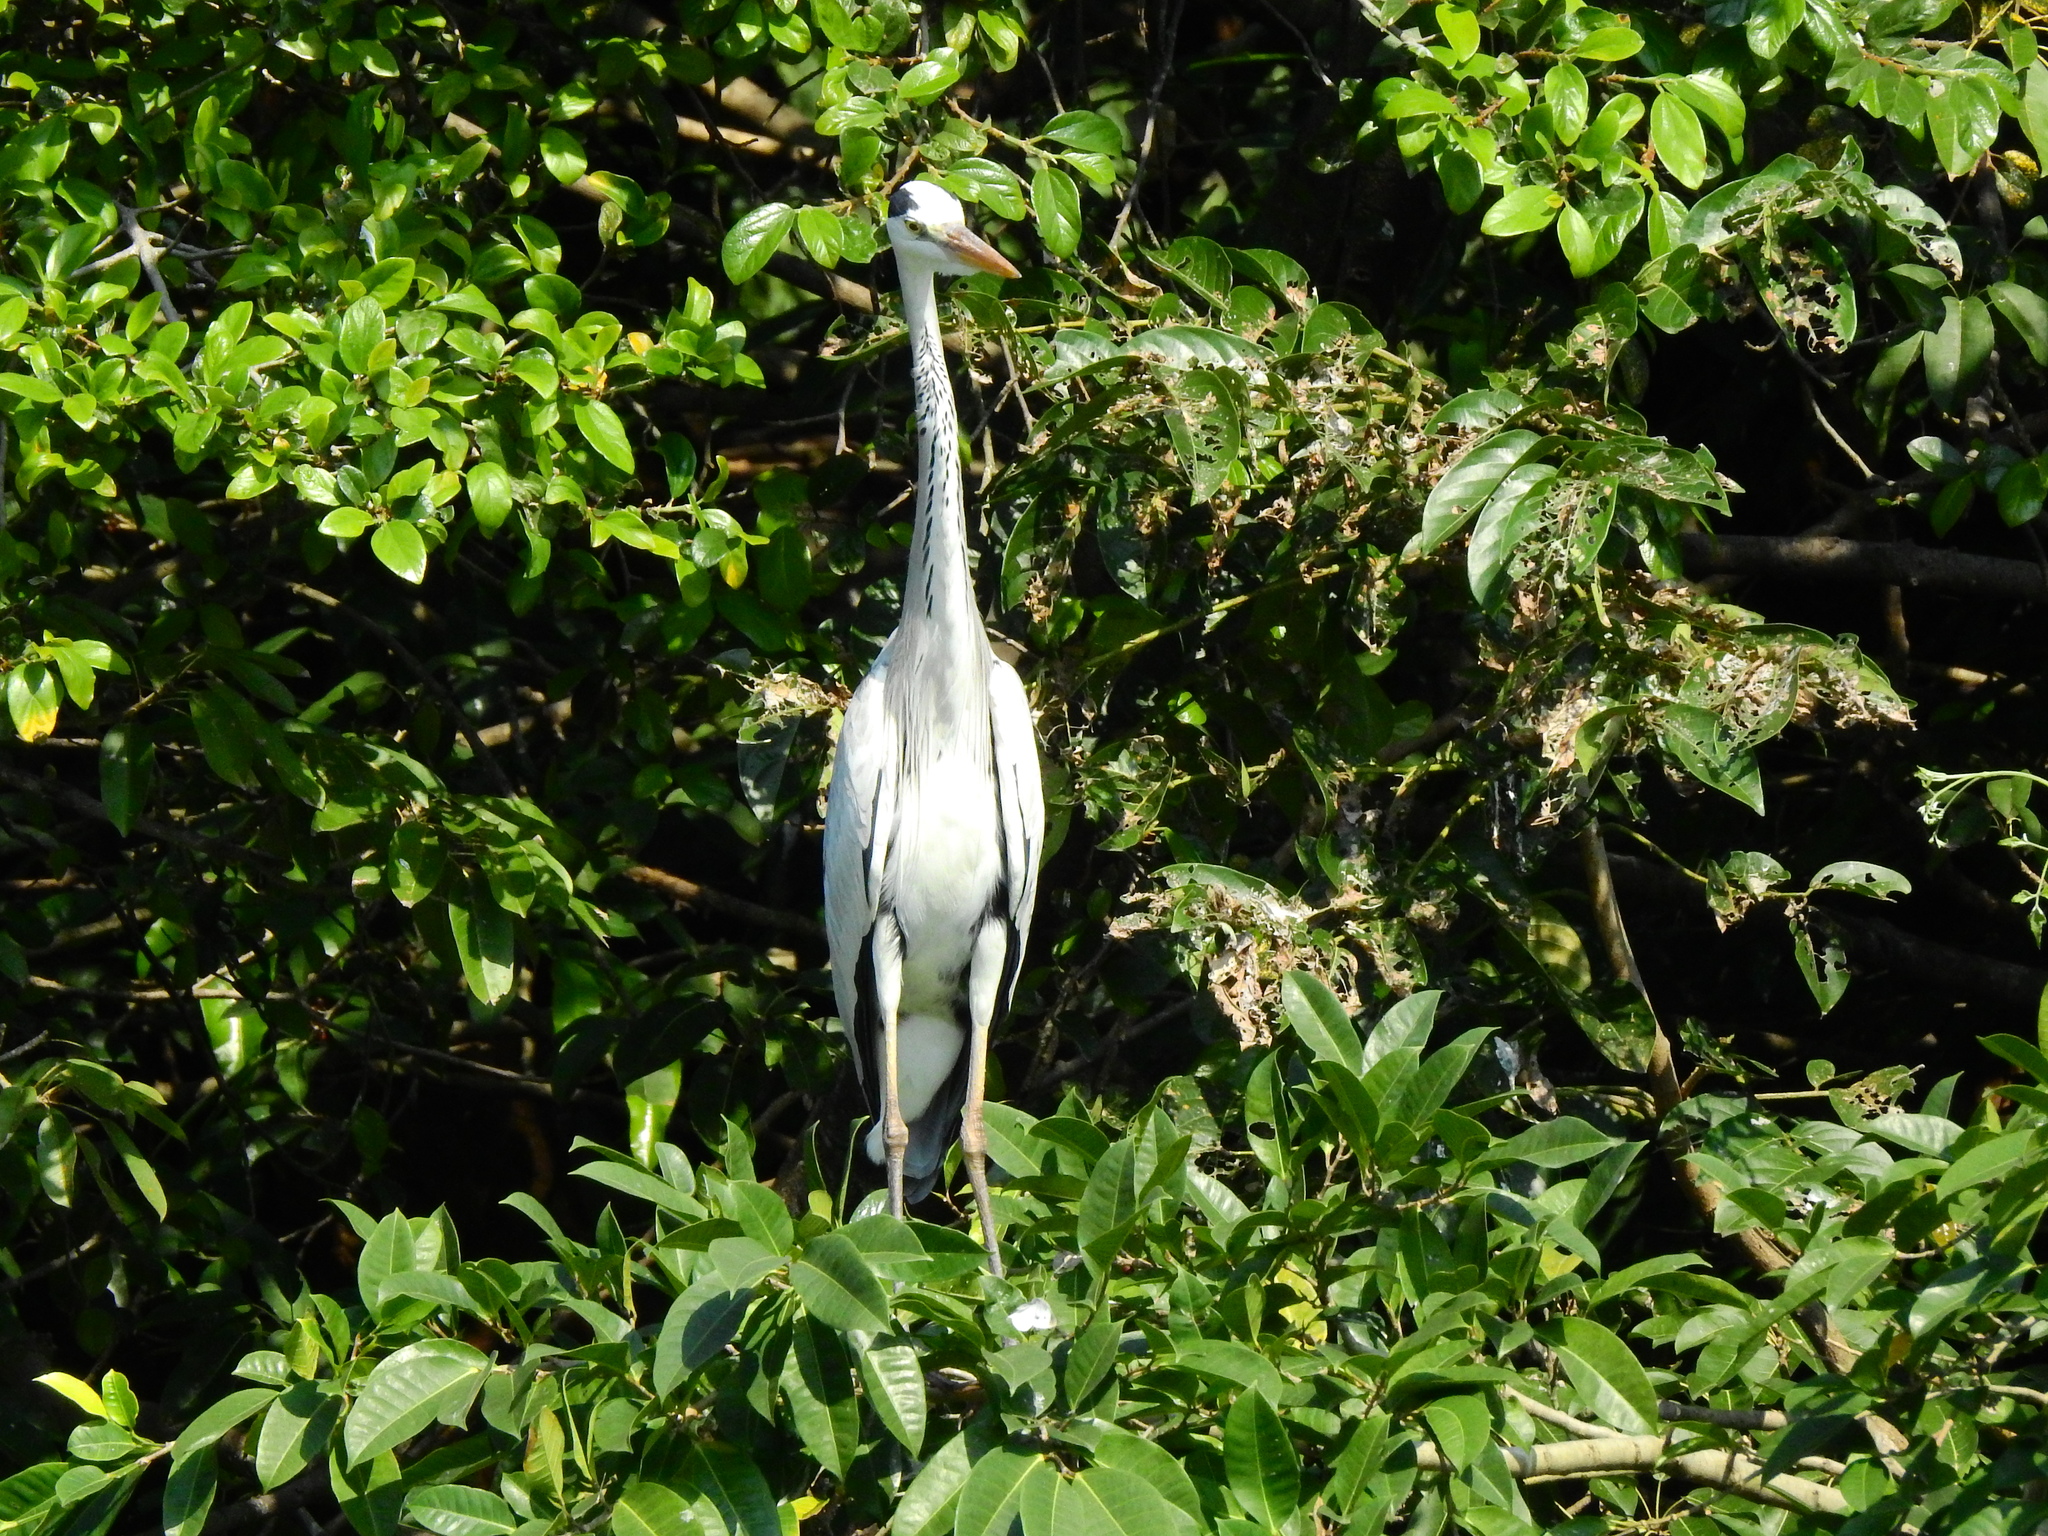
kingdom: Animalia
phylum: Chordata
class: Aves
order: Pelecaniformes
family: Ardeidae
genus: Ardea
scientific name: Ardea cinerea
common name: Grey heron
